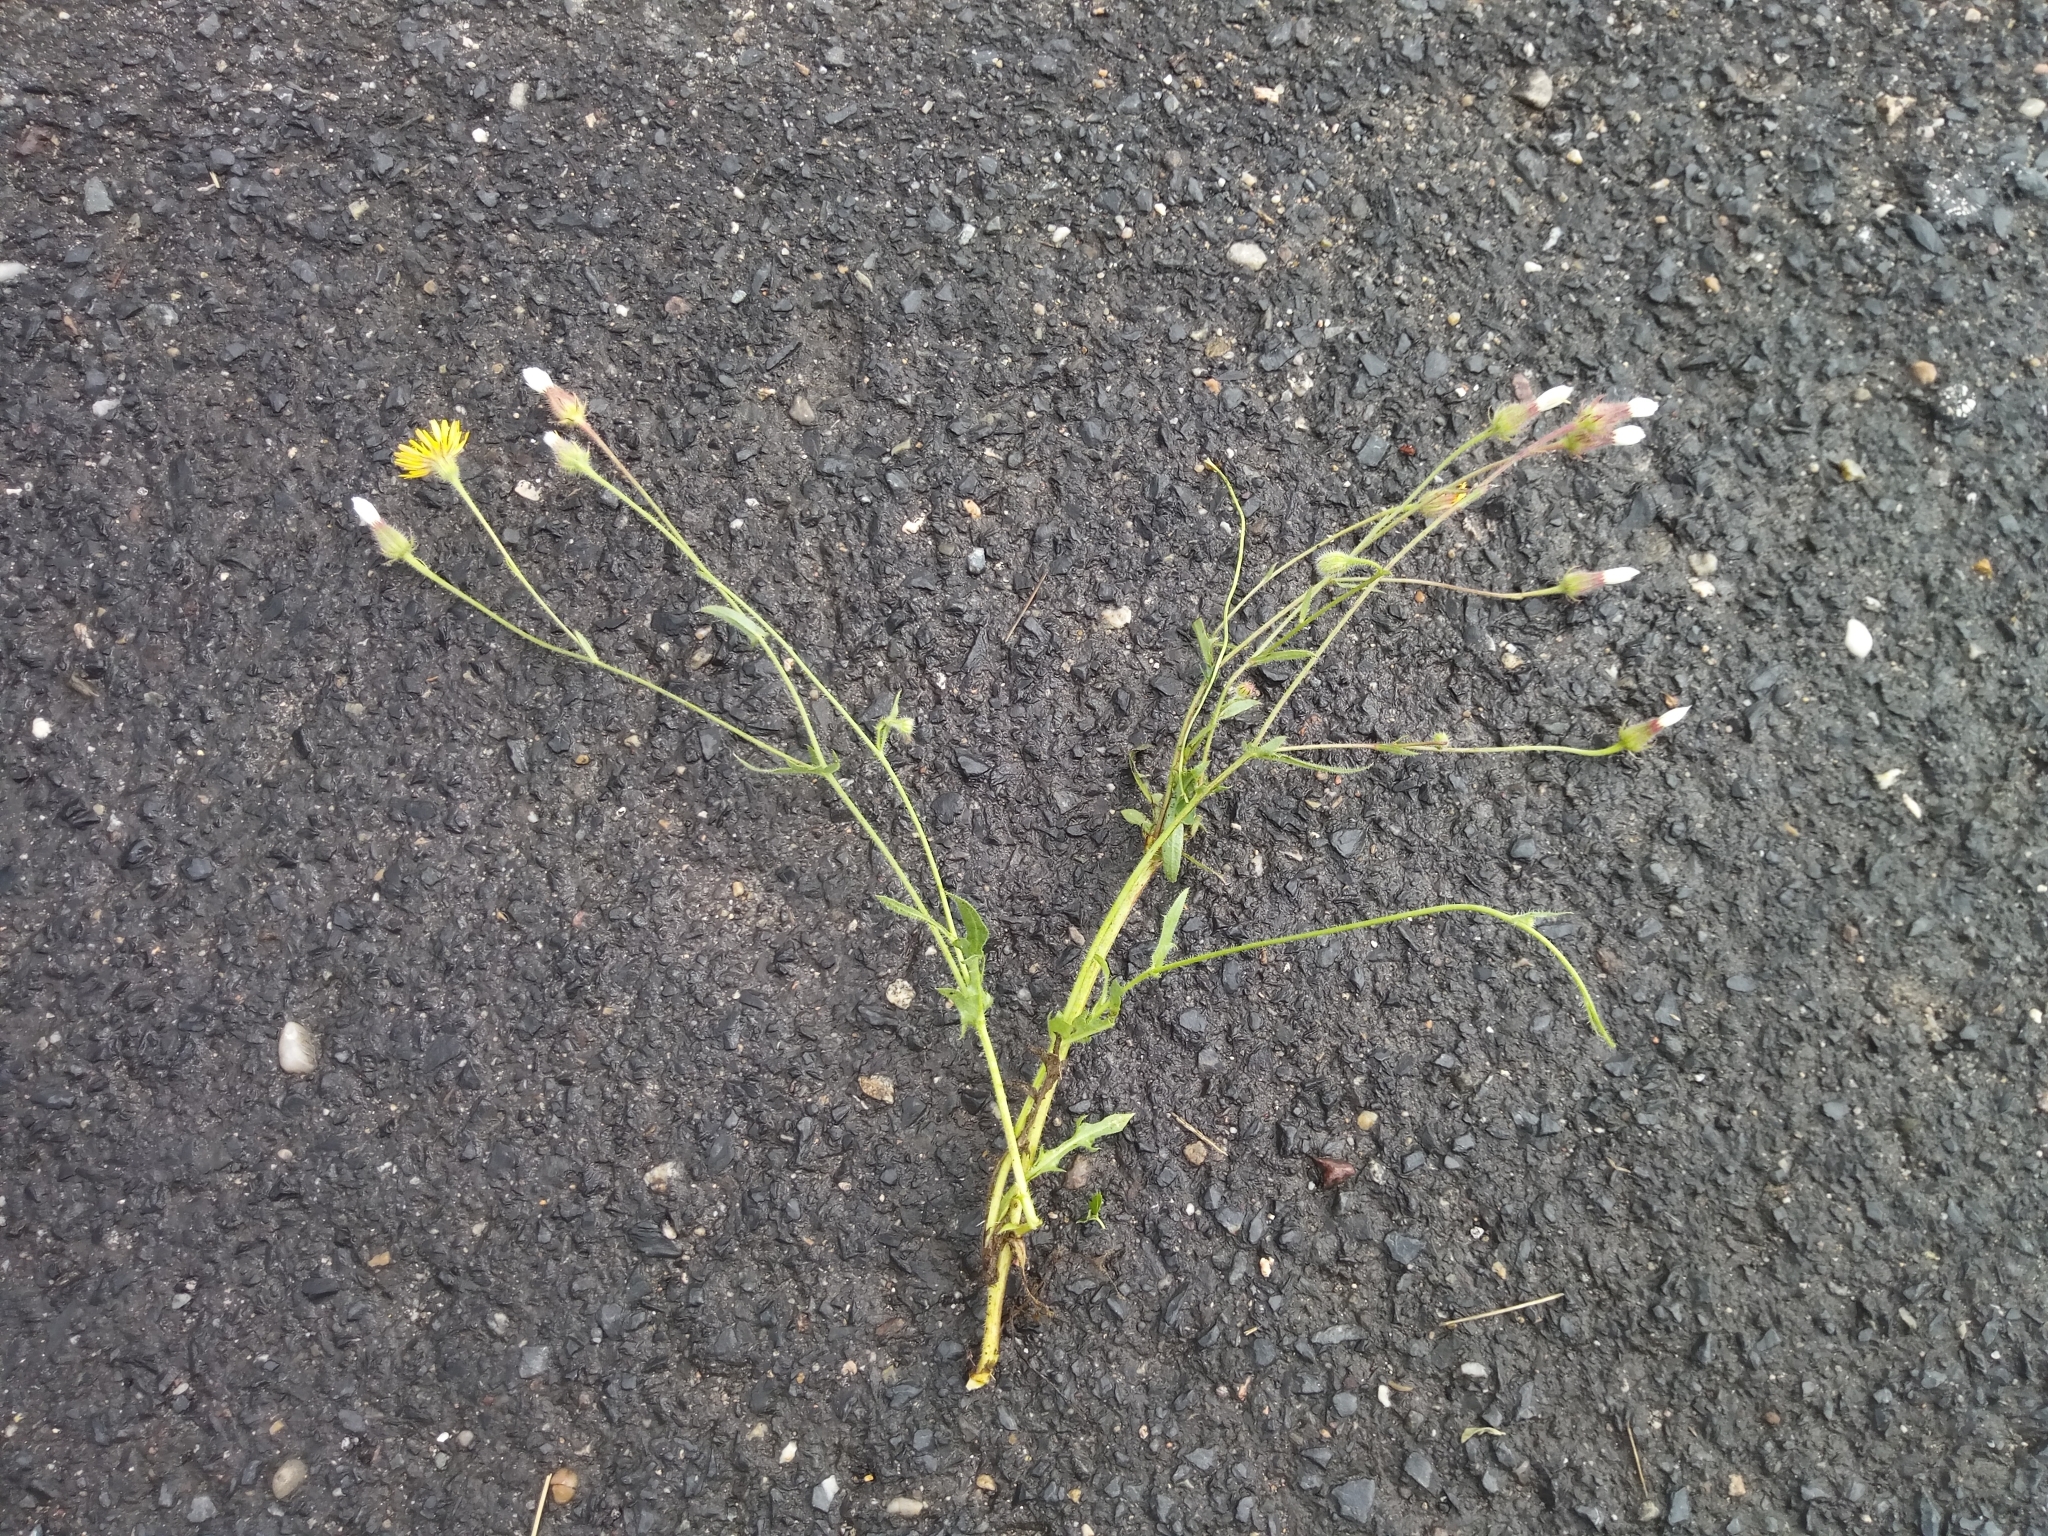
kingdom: Plantae
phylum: Tracheophyta
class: Magnoliopsida
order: Asterales
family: Asteraceae
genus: Crepis
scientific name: Crepis foetida
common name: Stinking hawk's-beard
